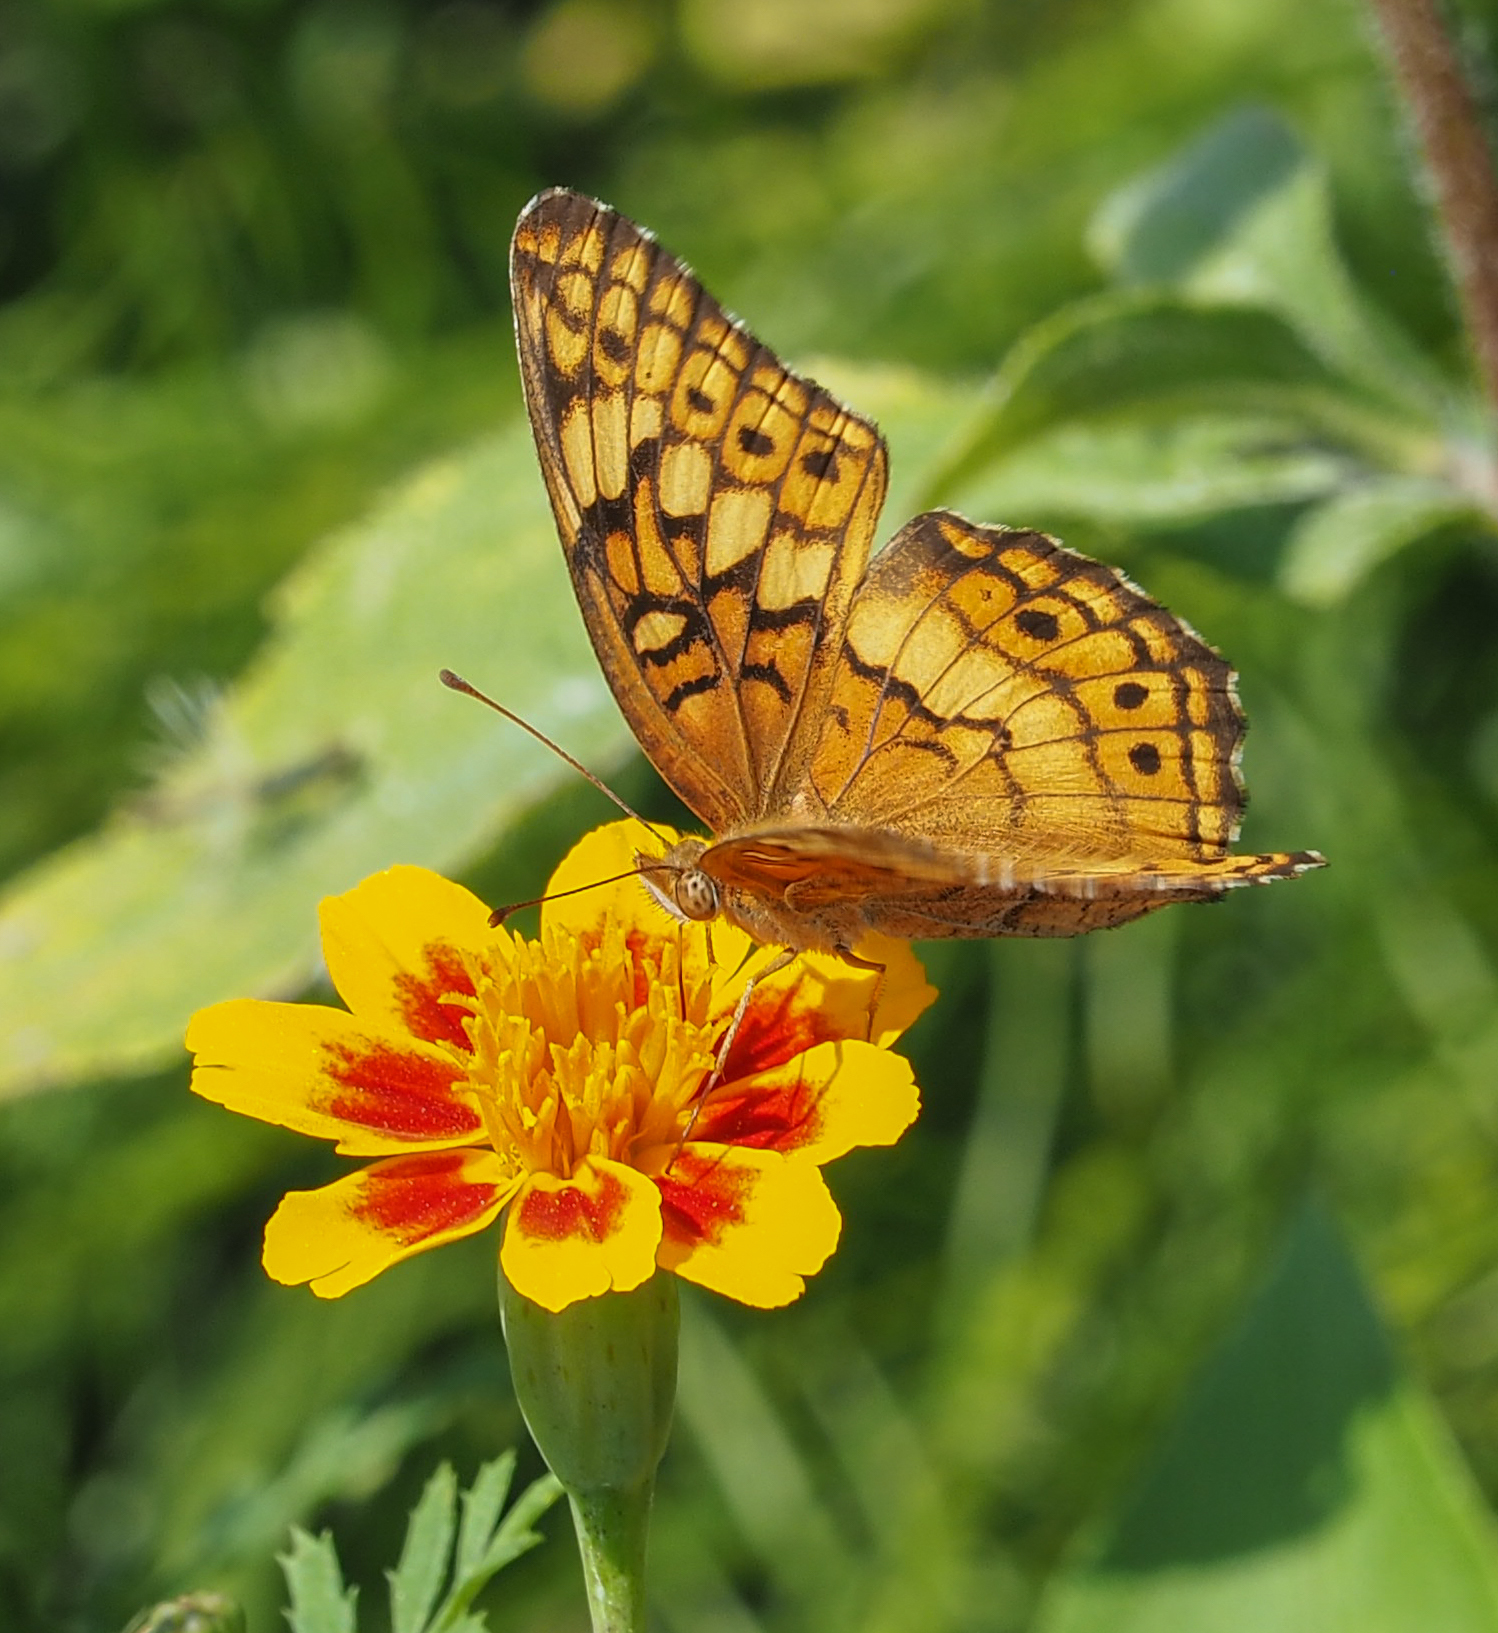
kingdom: Animalia
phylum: Arthropoda
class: Insecta
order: Lepidoptera
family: Nymphalidae
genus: Euptoieta
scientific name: Euptoieta claudia
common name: Variegated fritillary
